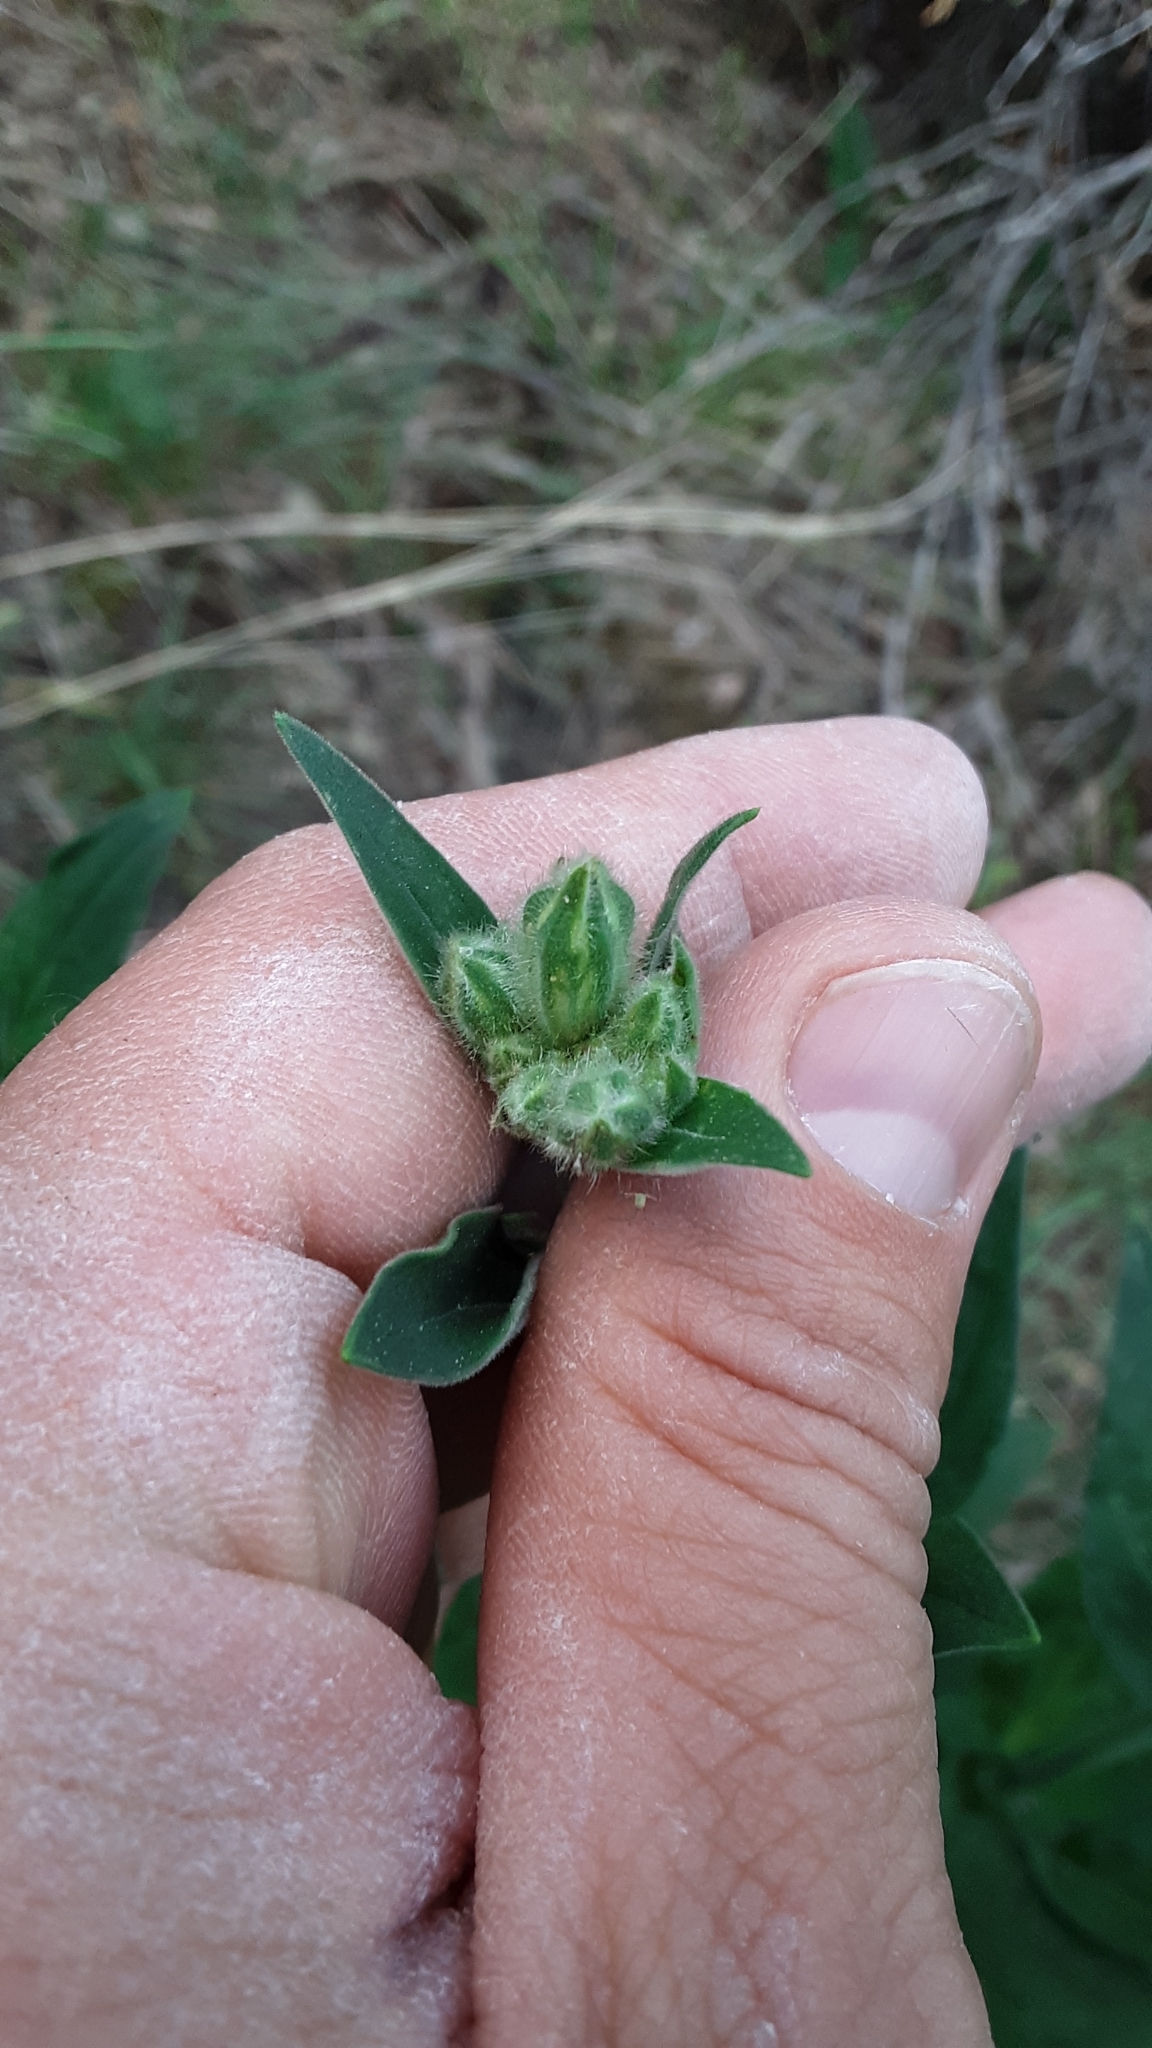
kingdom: Plantae
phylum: Tracheophyta
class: Magnoliopsida
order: Caryophyllales
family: Caryophyllaceae
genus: Silene
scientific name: Silene latifolia
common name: White campion
